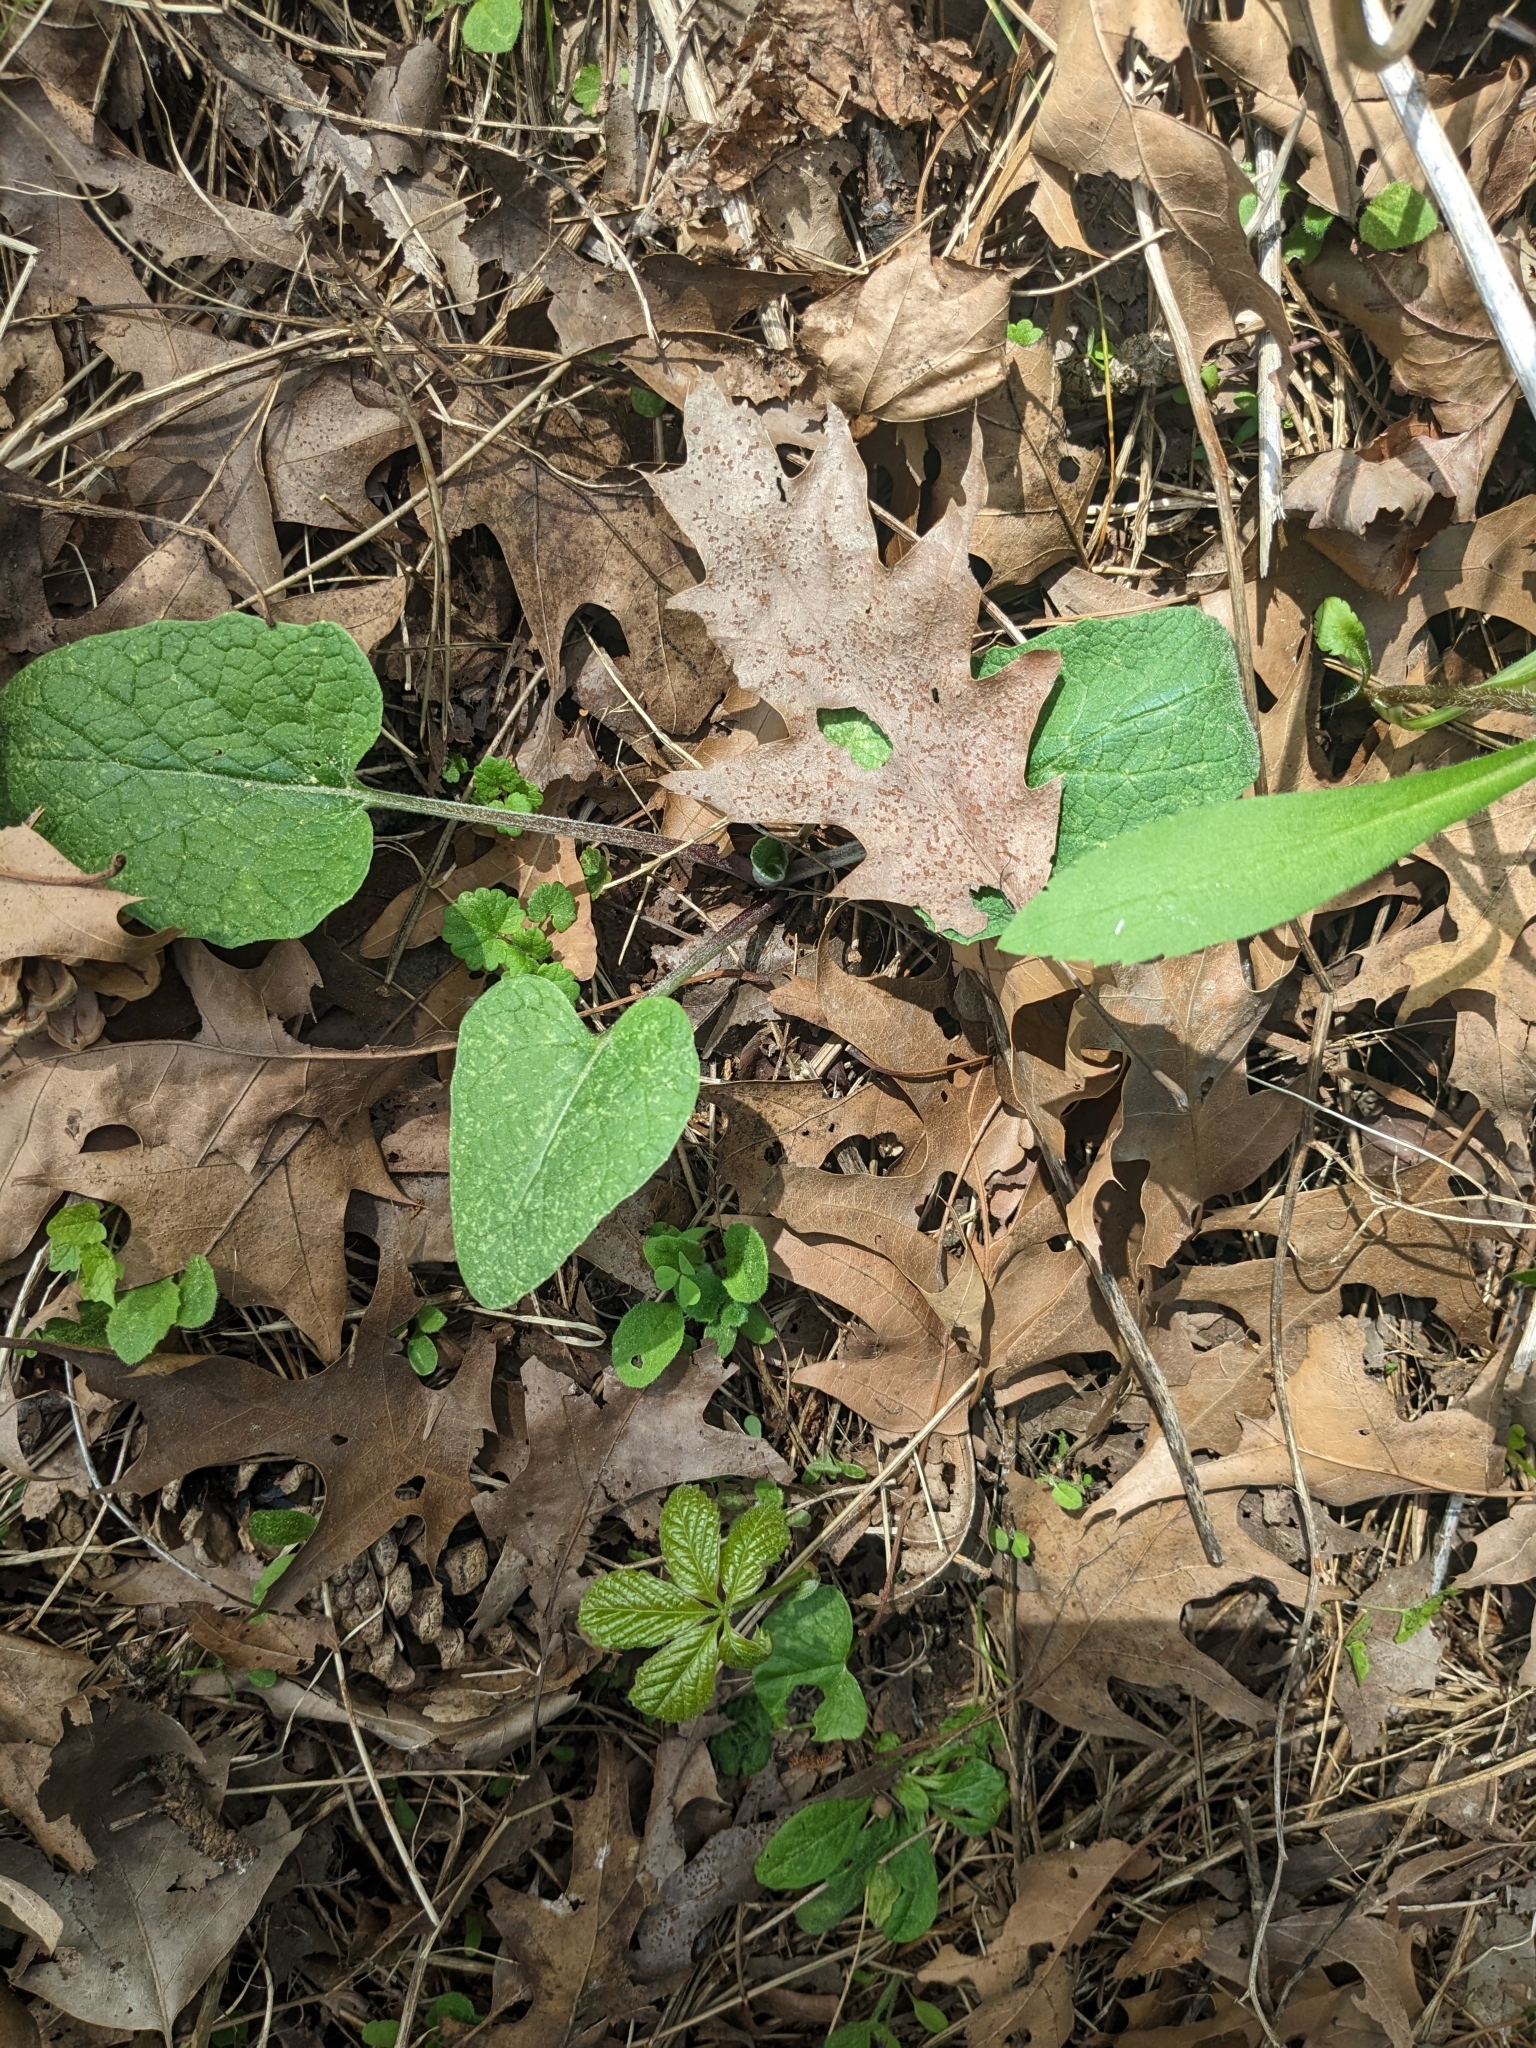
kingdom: Plantae
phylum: Tracheophyta
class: Magnoliopsida
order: Asterales
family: Asteraceae
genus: Arctium
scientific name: Arctium
